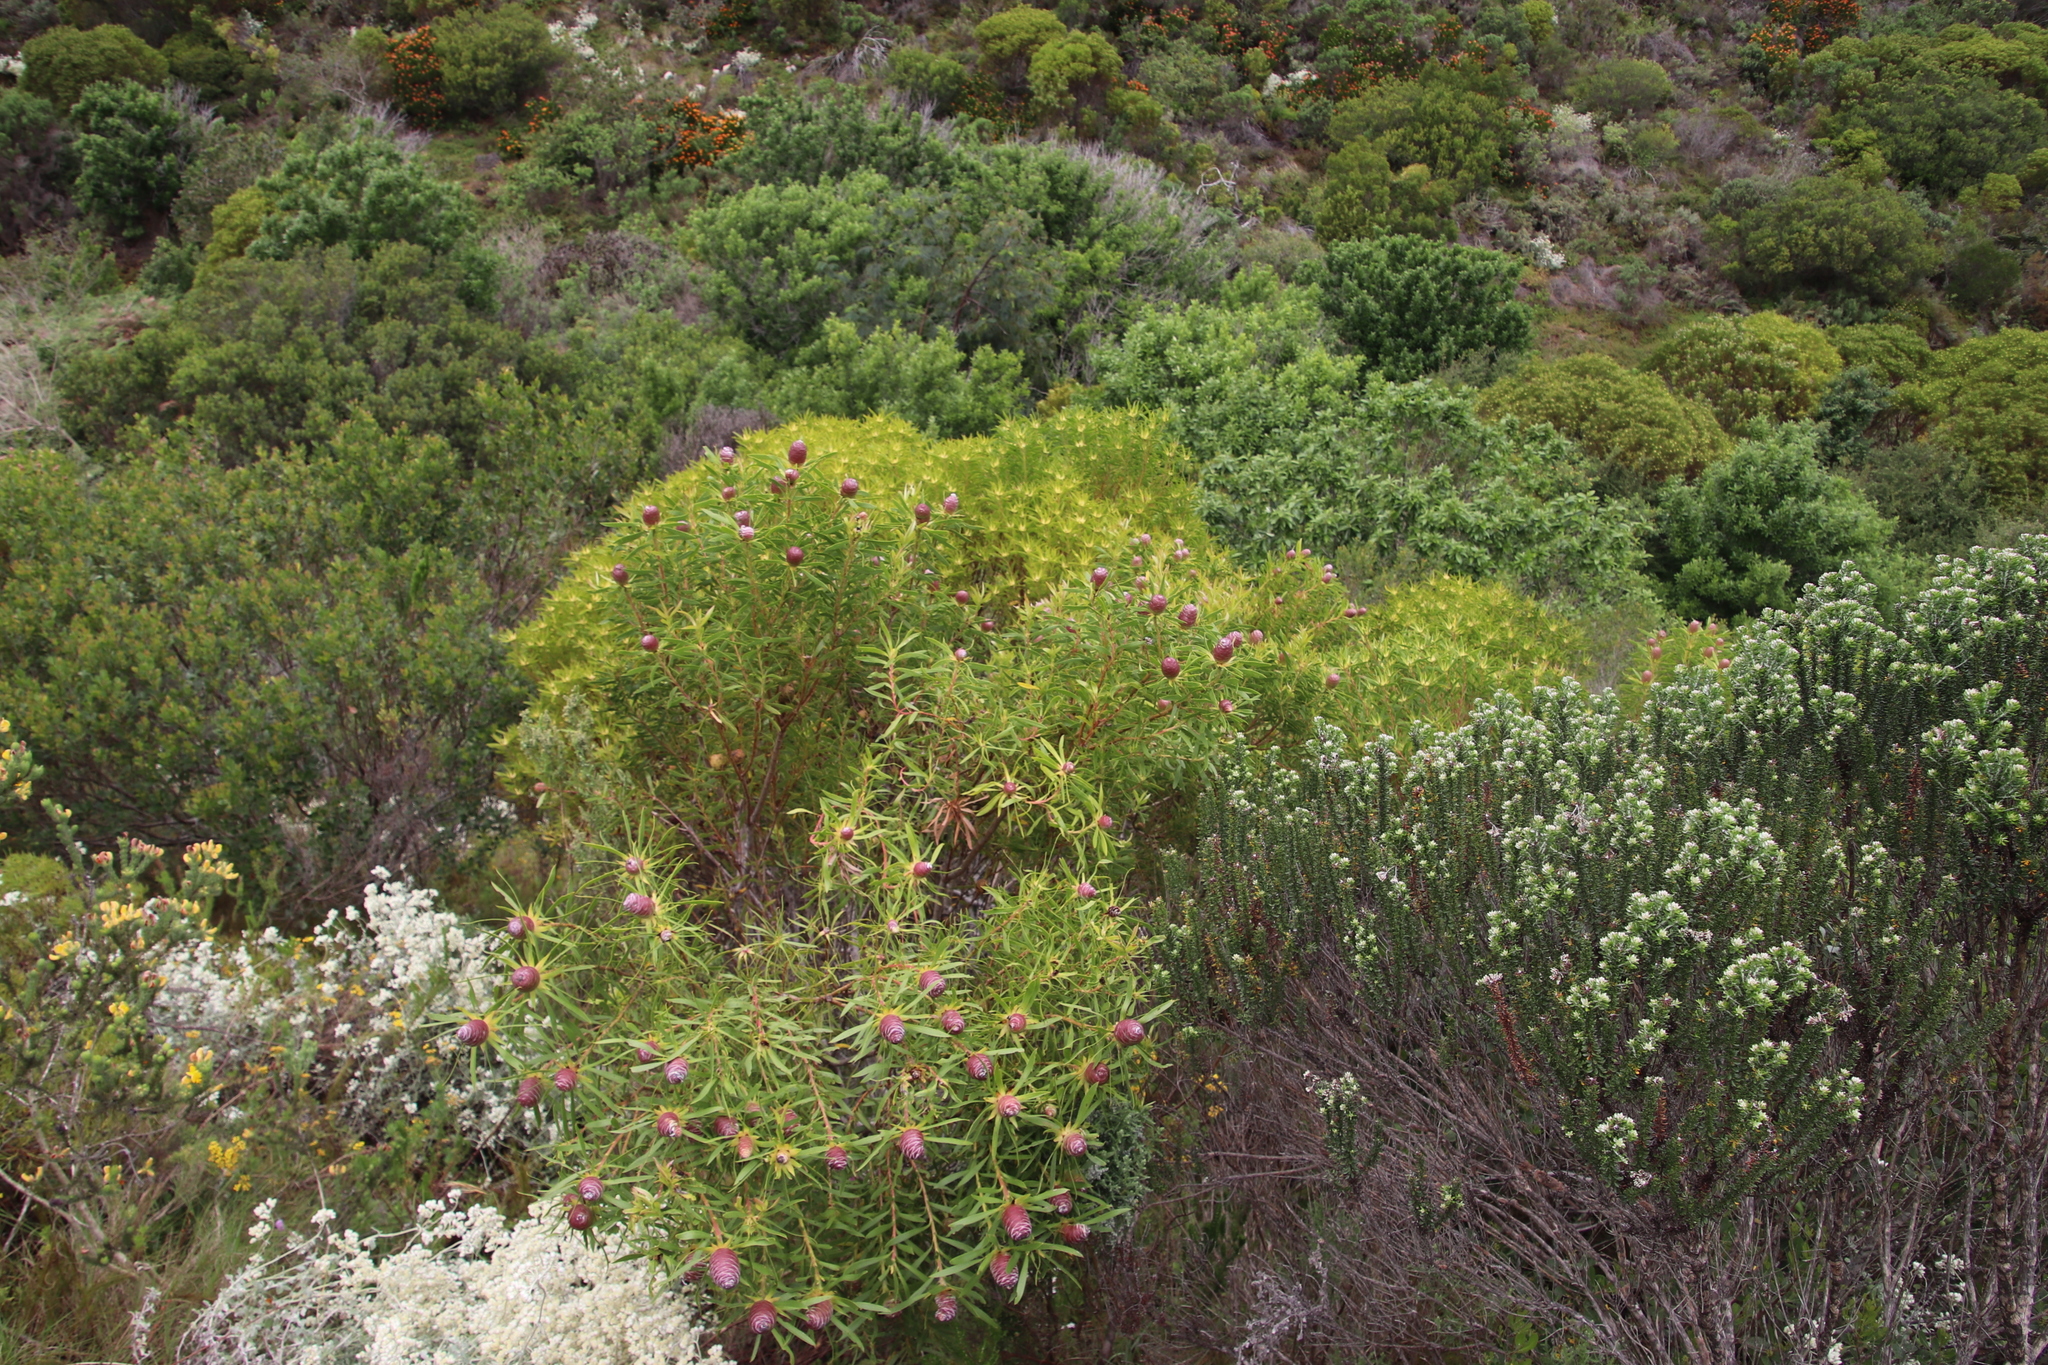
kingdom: Plantae
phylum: Tracheophyta
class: Magnoliopsida
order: Proteales
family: Proteaceae
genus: Leucadendron
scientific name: Leucadendron coniferum
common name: Dune conebush
